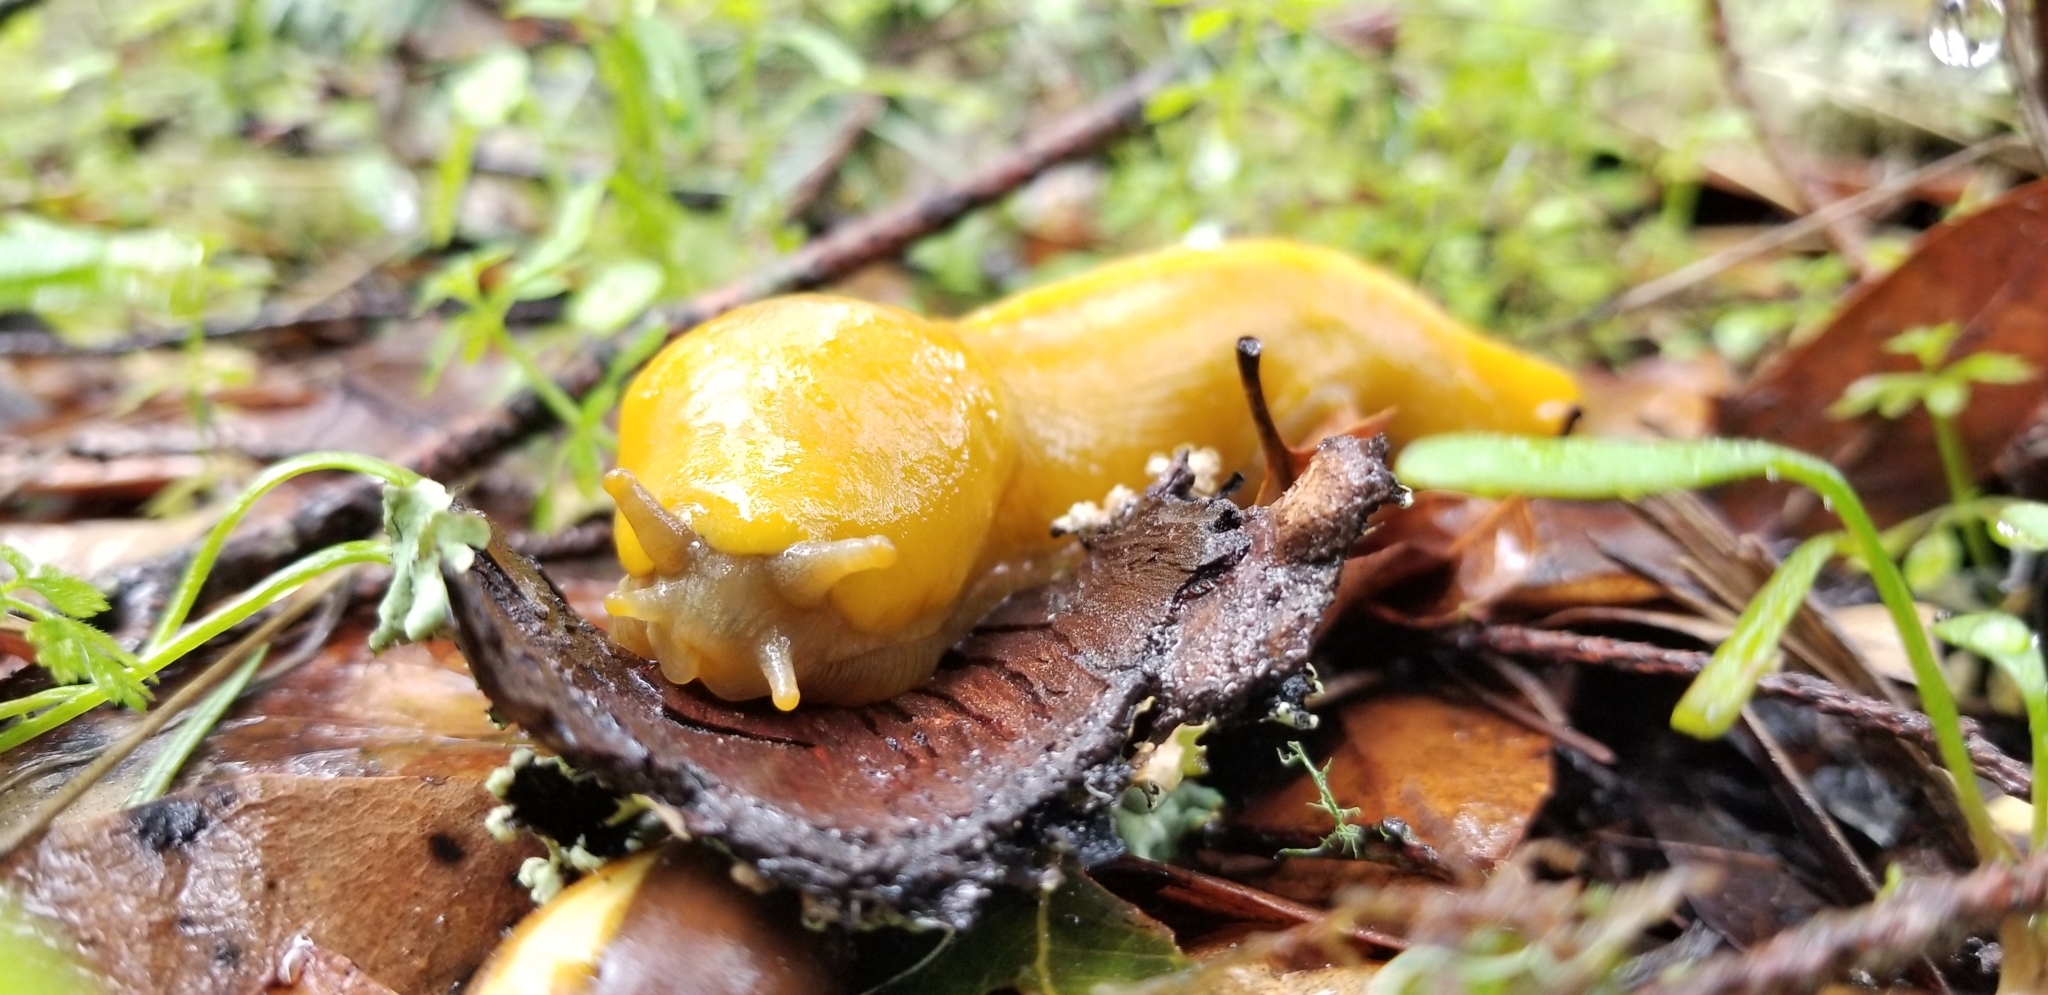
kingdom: Animalia
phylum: Mollusca
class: Gastropoda
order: Stylommatophora
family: Ariolimacidae
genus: Ariolimax
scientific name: Ariolimax californicus
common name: California banana slug
